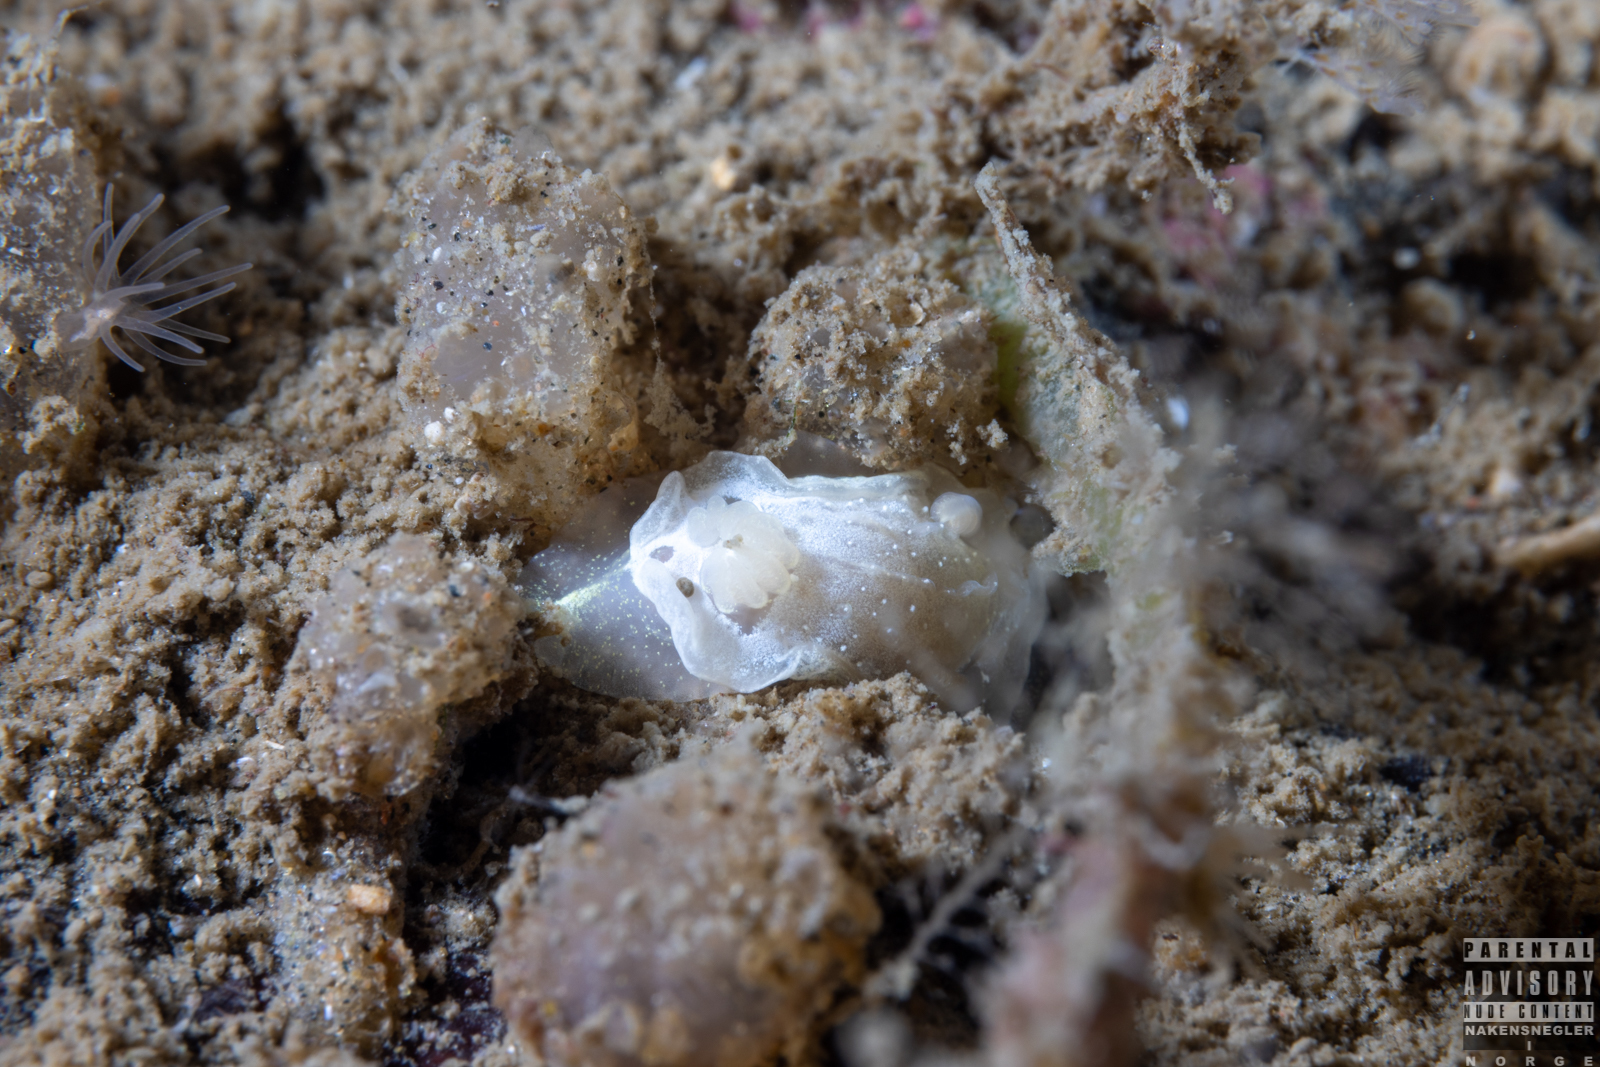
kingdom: Animalia
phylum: Mollusca
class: Gastropoda
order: Nudibranchia
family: Goniodorididae
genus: Okenia
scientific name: Okenia
